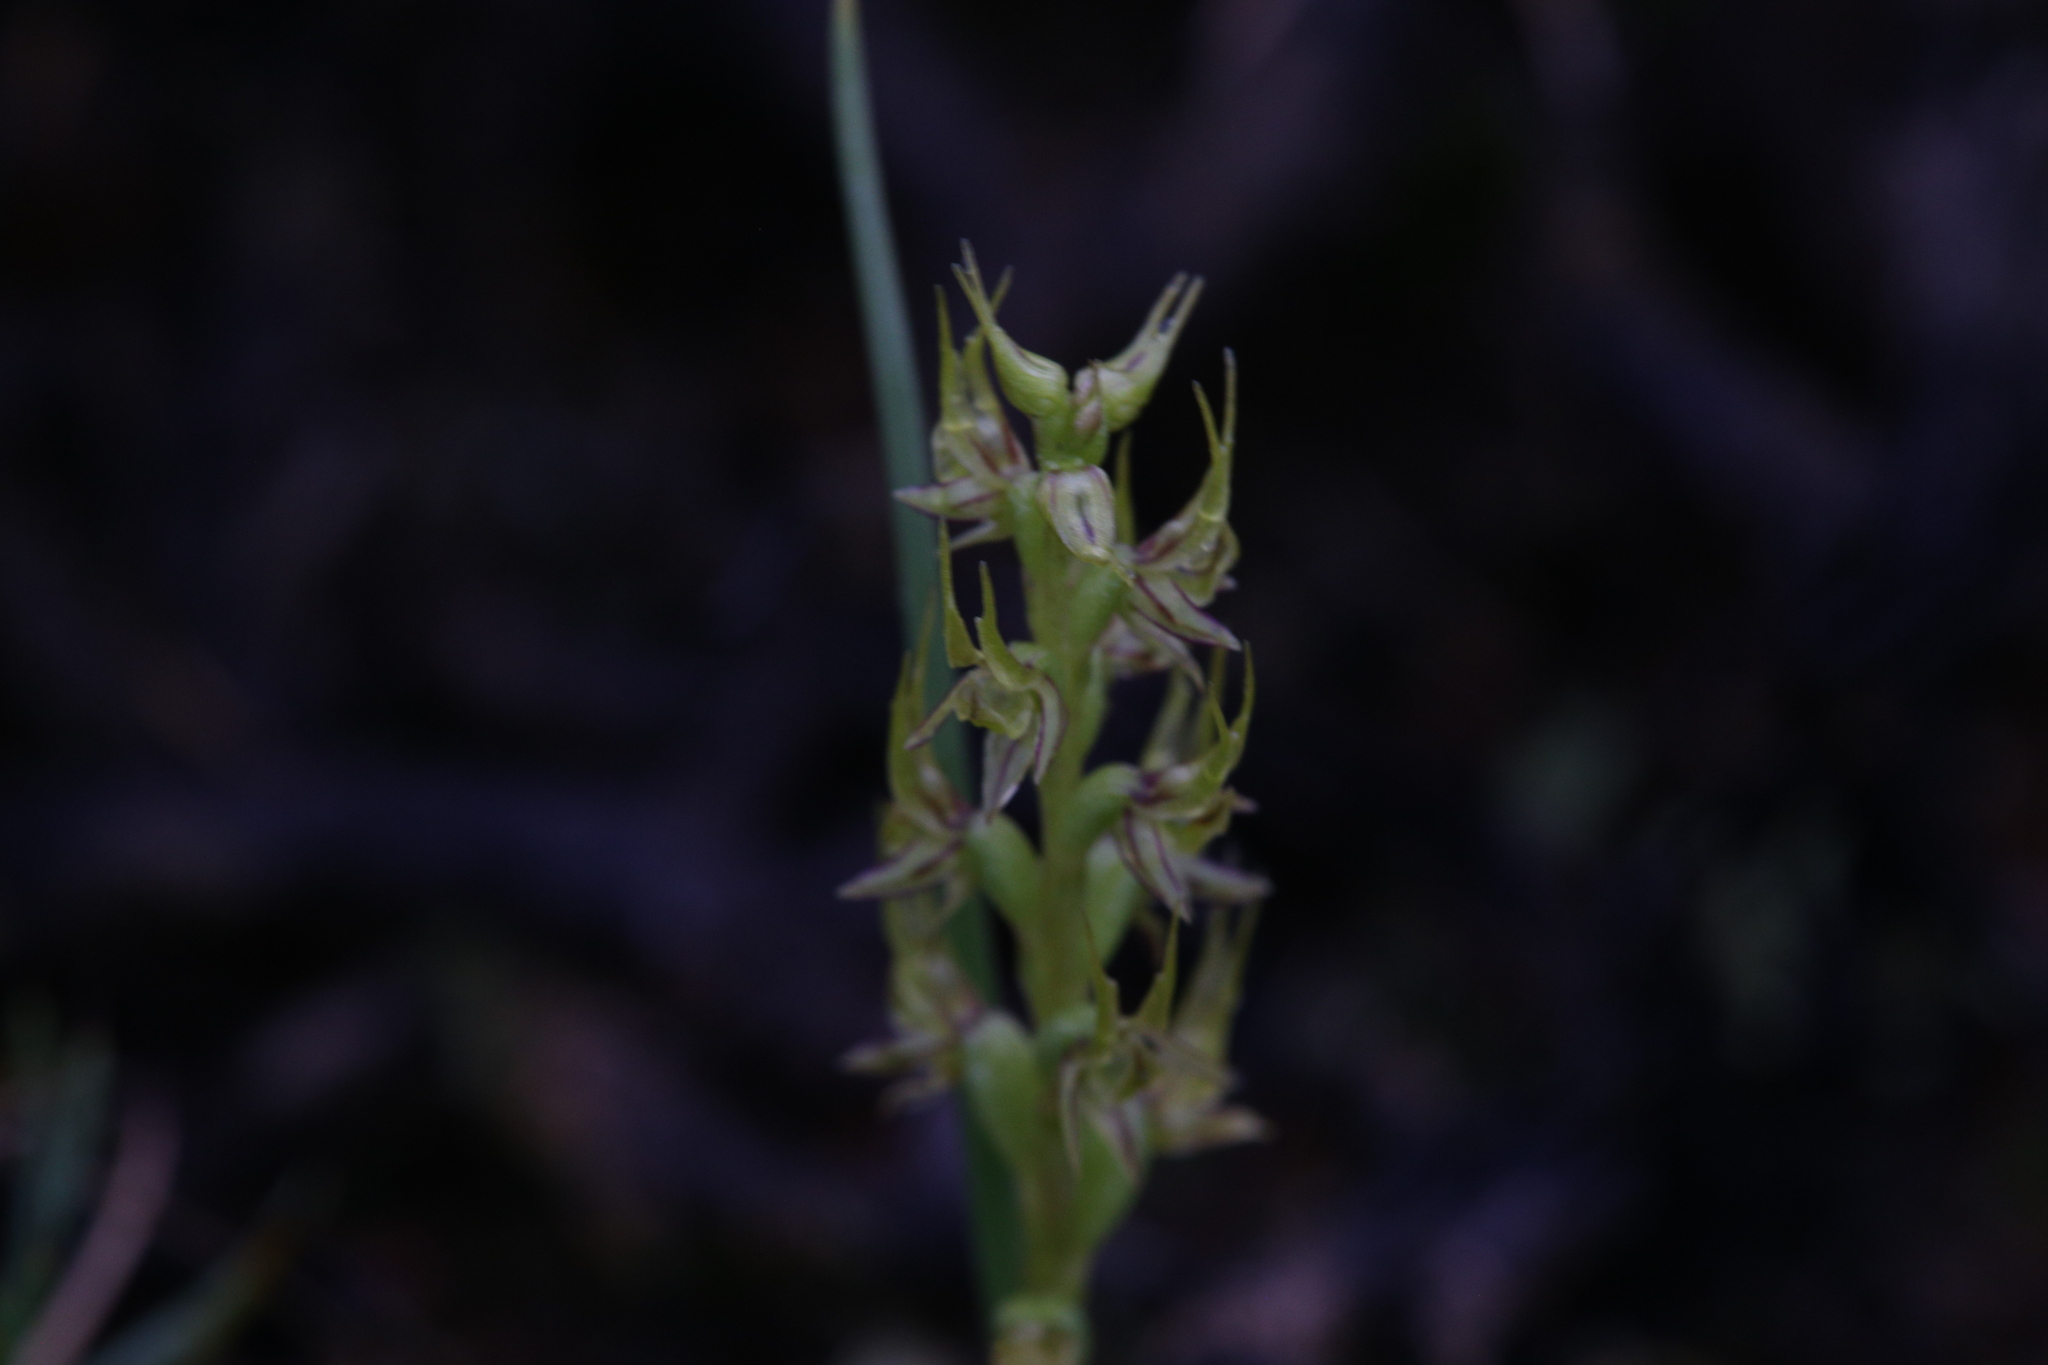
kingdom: Plantae
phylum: Tracheophyta
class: Liliopsida
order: Asparagales
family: Orchidaceae
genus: Prasophyllum
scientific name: Prasophyllum gracile
